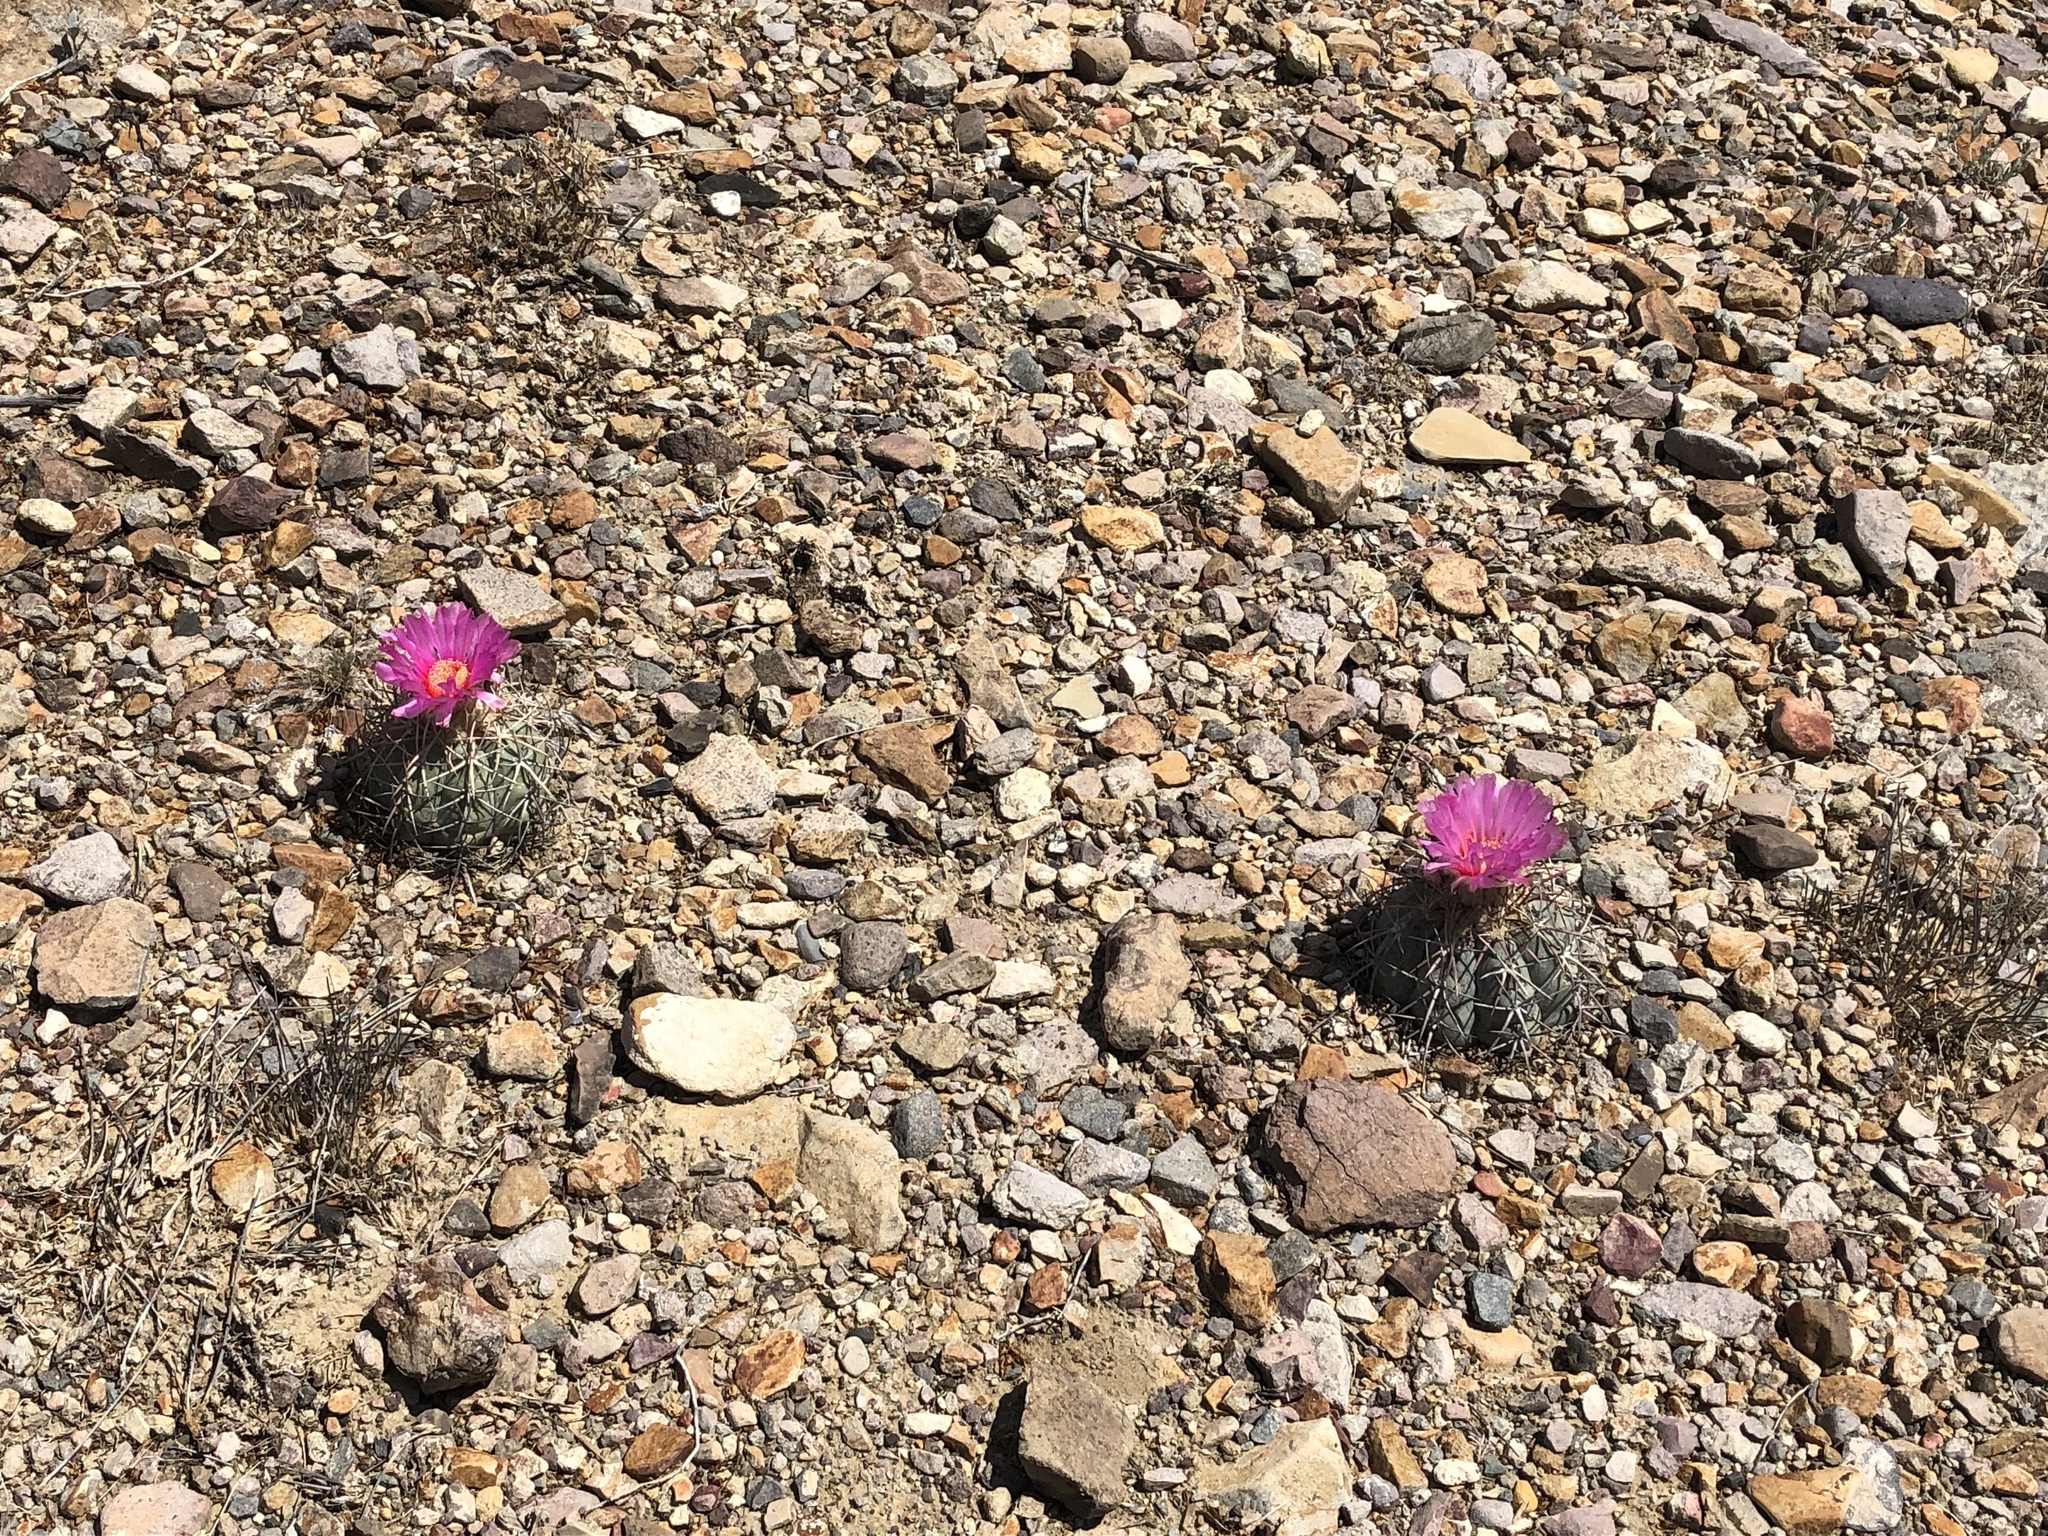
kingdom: Plantae
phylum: Tracheophyta
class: Magnoliopsida
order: Caryophyllales
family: Cactaceae
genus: Echinocactus
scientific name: Echinocactus horizonthalonius
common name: Devilshead
